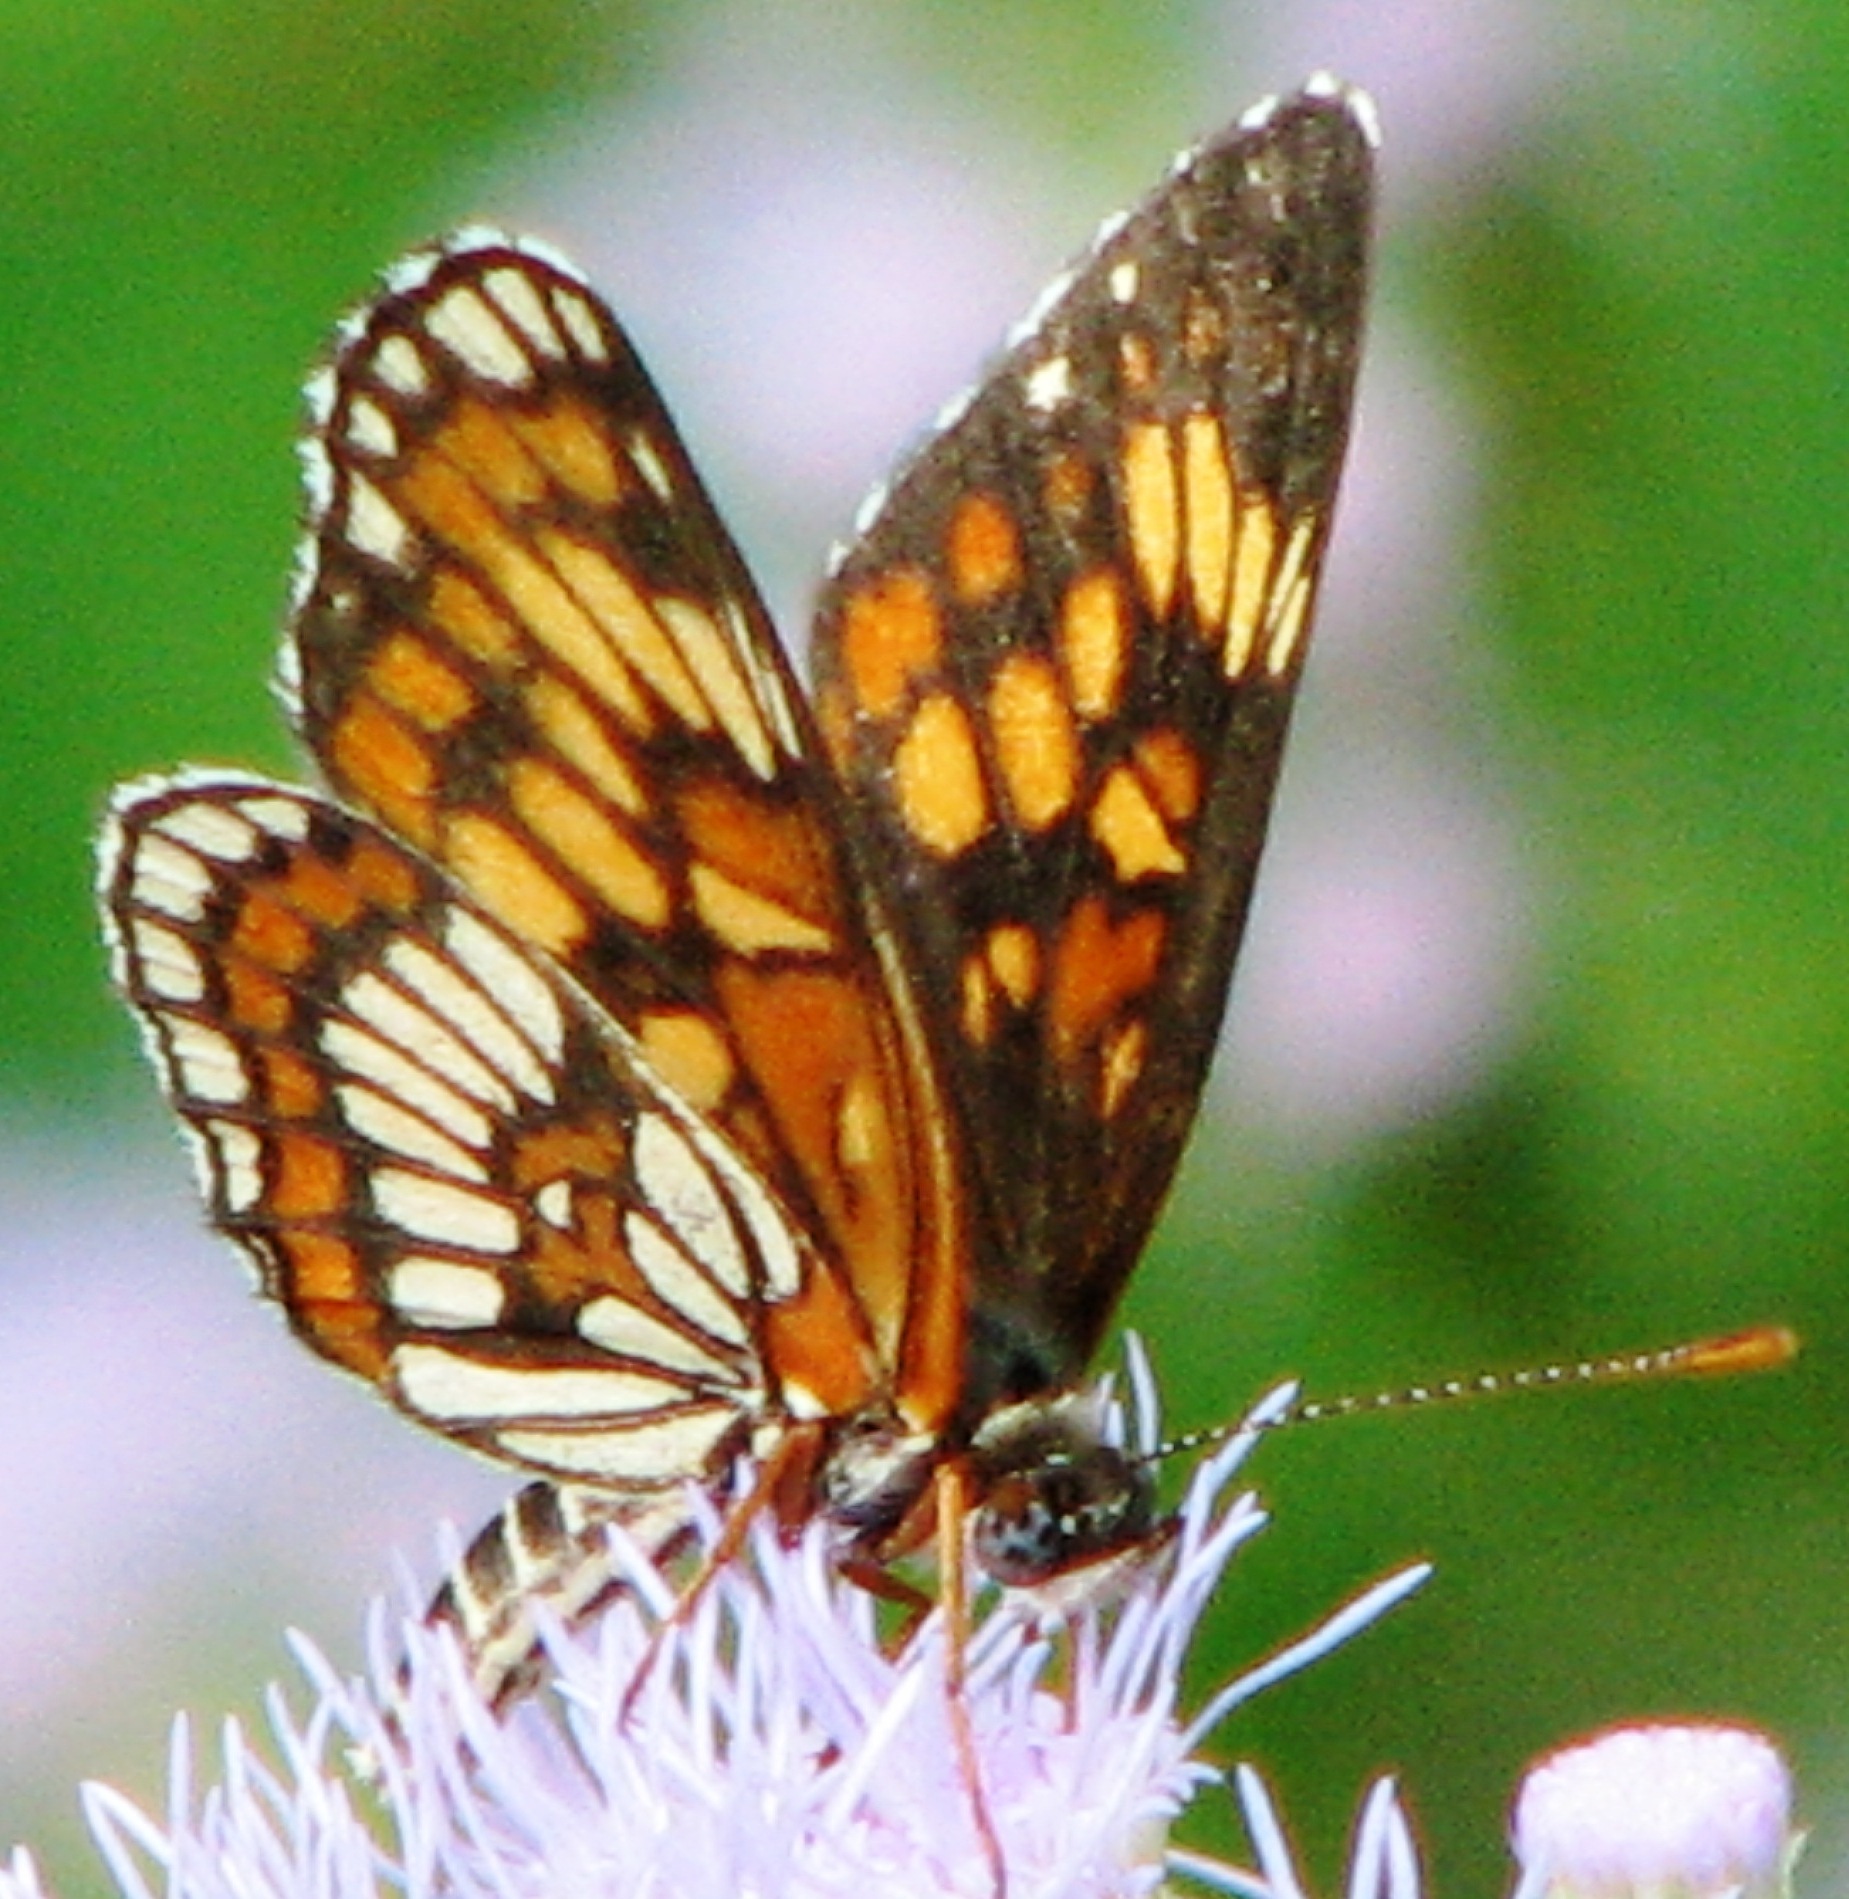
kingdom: Animalia
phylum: Arthropoda
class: Insecta
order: Lepidoptera
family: Nymphalidae
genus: Thessalia
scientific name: Thessalia theona
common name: Nymphalid moth
